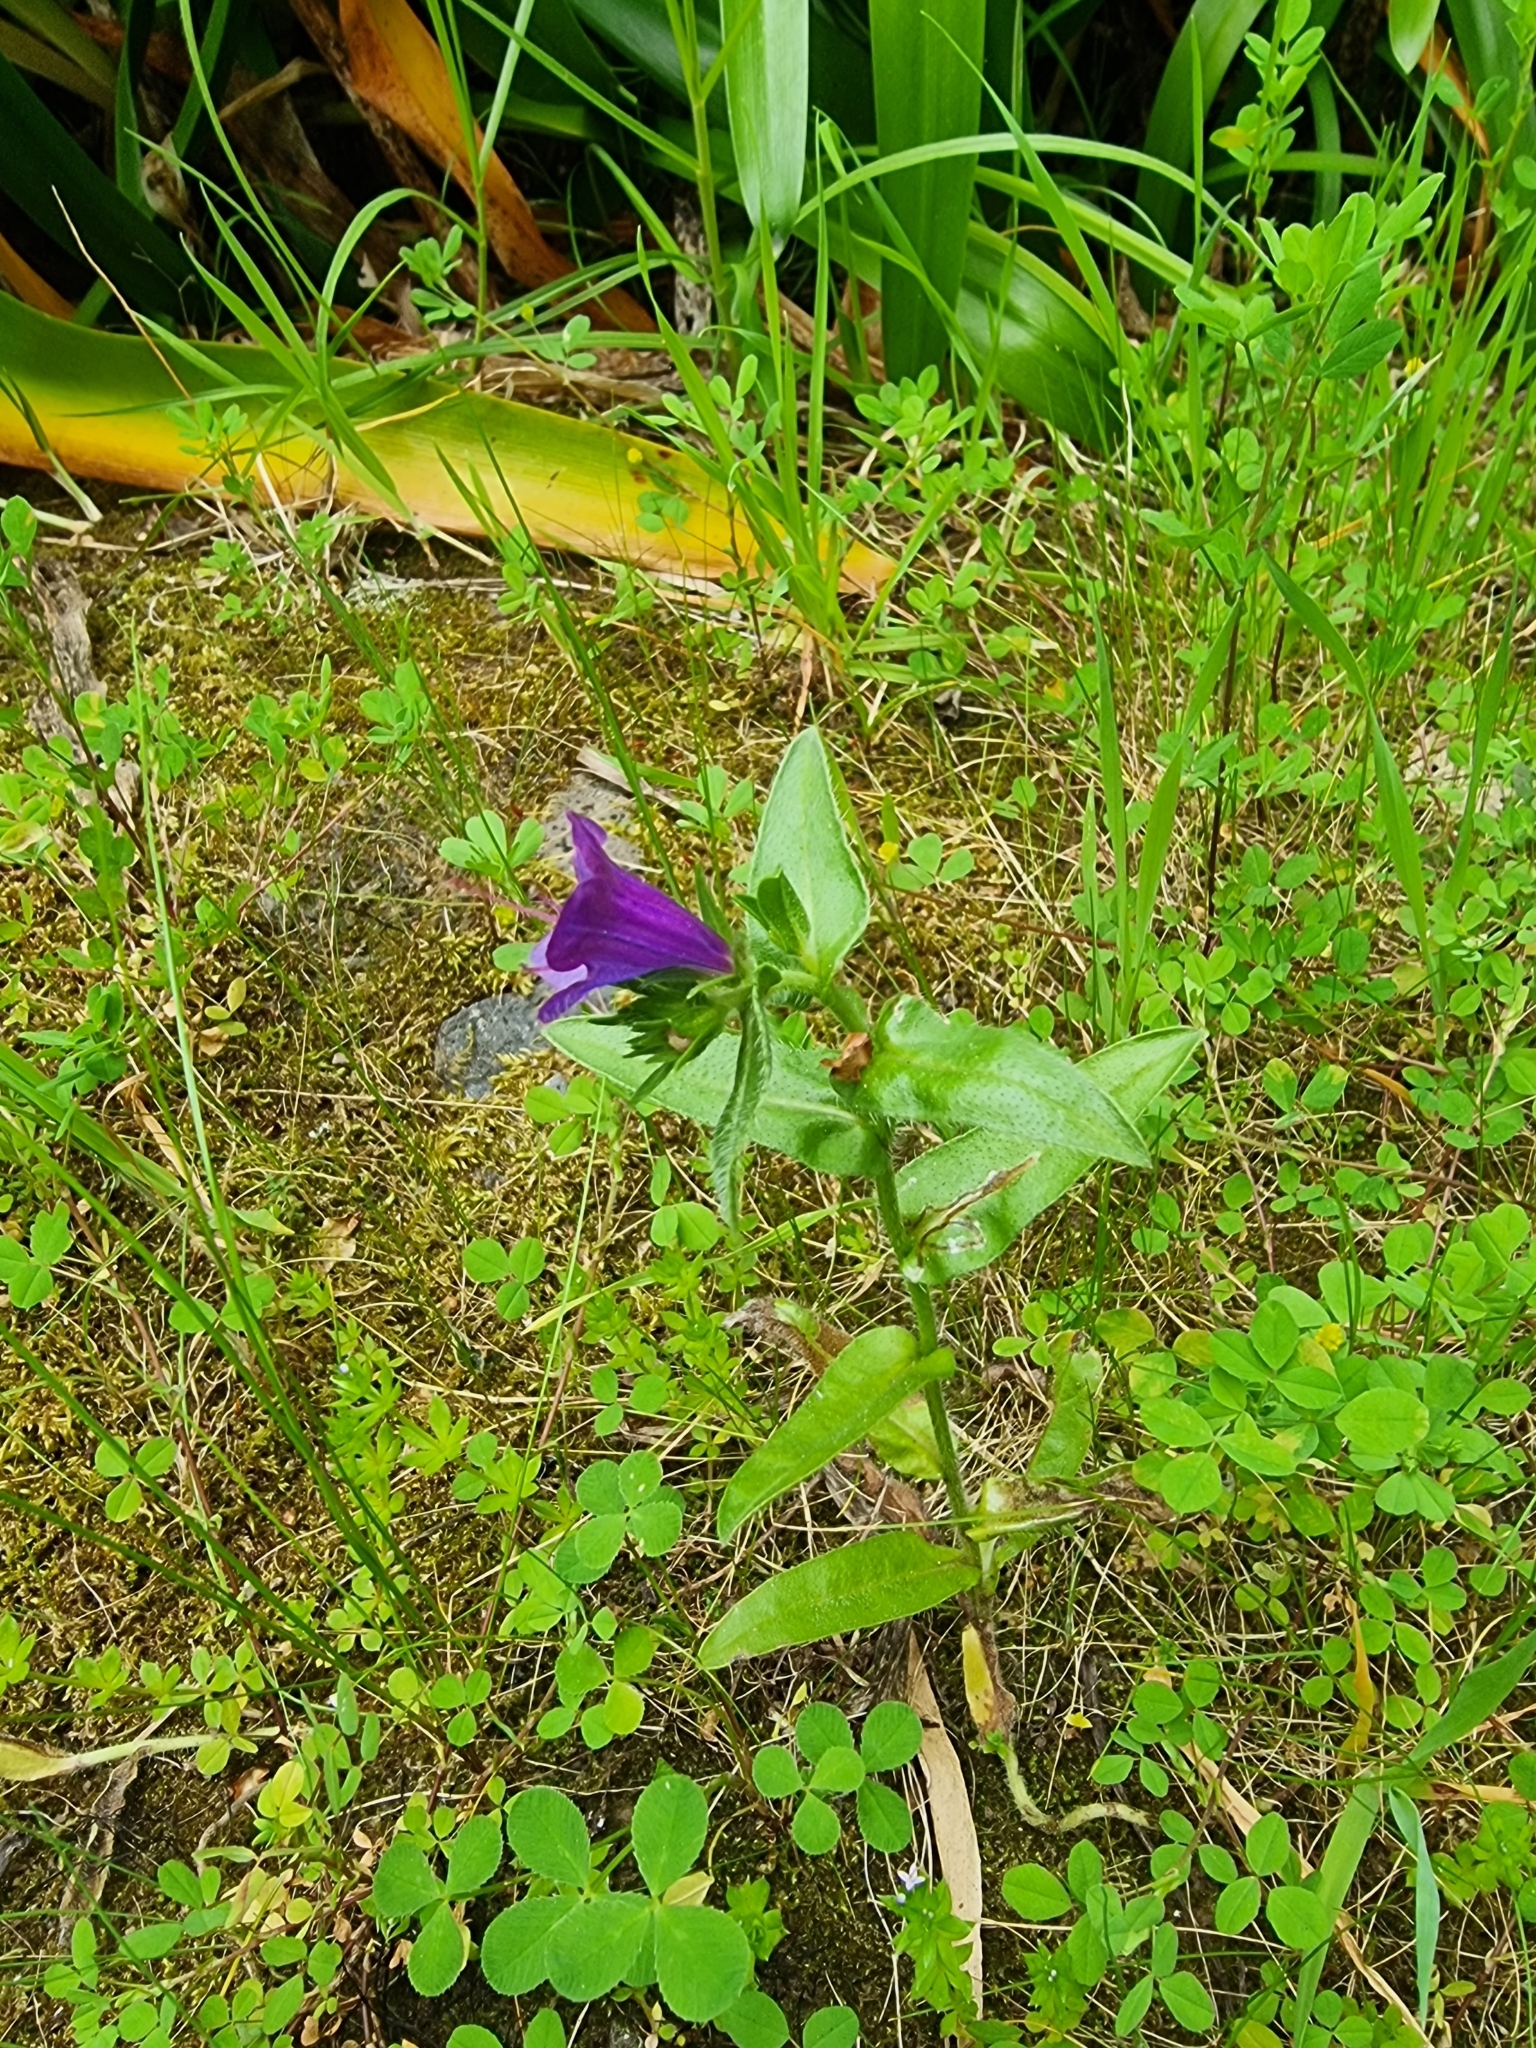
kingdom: Plantae
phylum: Tracheophyta
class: Magnoliopsida
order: Boraginales
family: Boraginaceae
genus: Echium
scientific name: Echium plantagineum
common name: Purple viper's-bugloss
